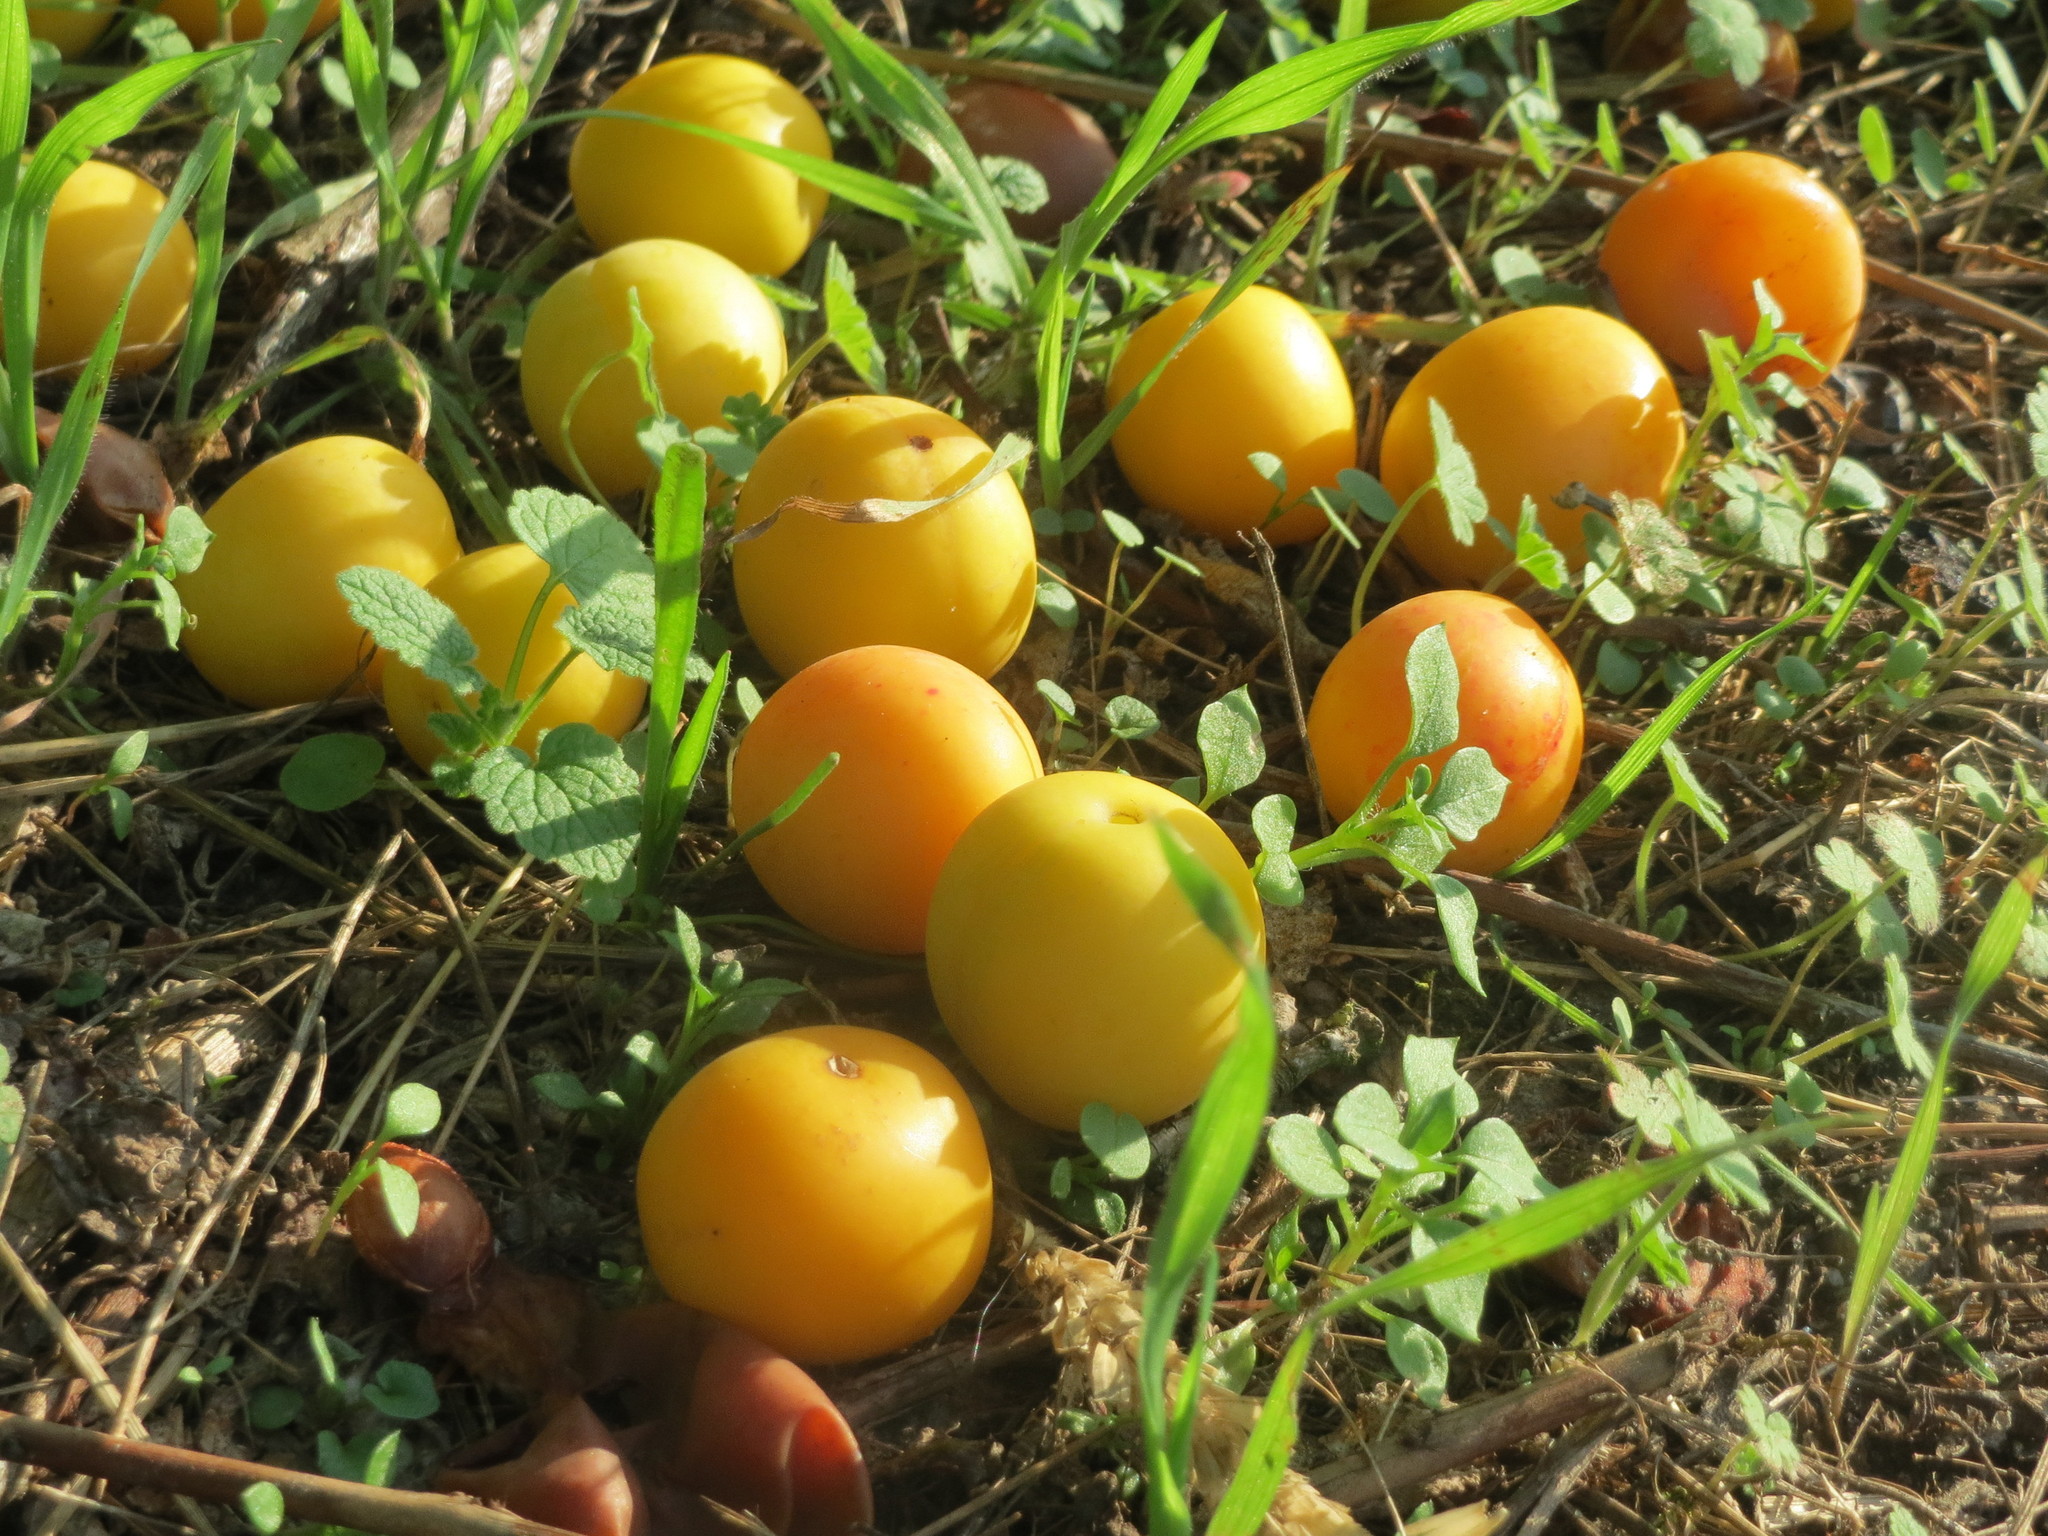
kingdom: Plantae
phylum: Tracheophyta
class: Magnoliopsida
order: Rosales
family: Rosaceae
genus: Prunus
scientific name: Prunus cerasifera
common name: Cherry plum
